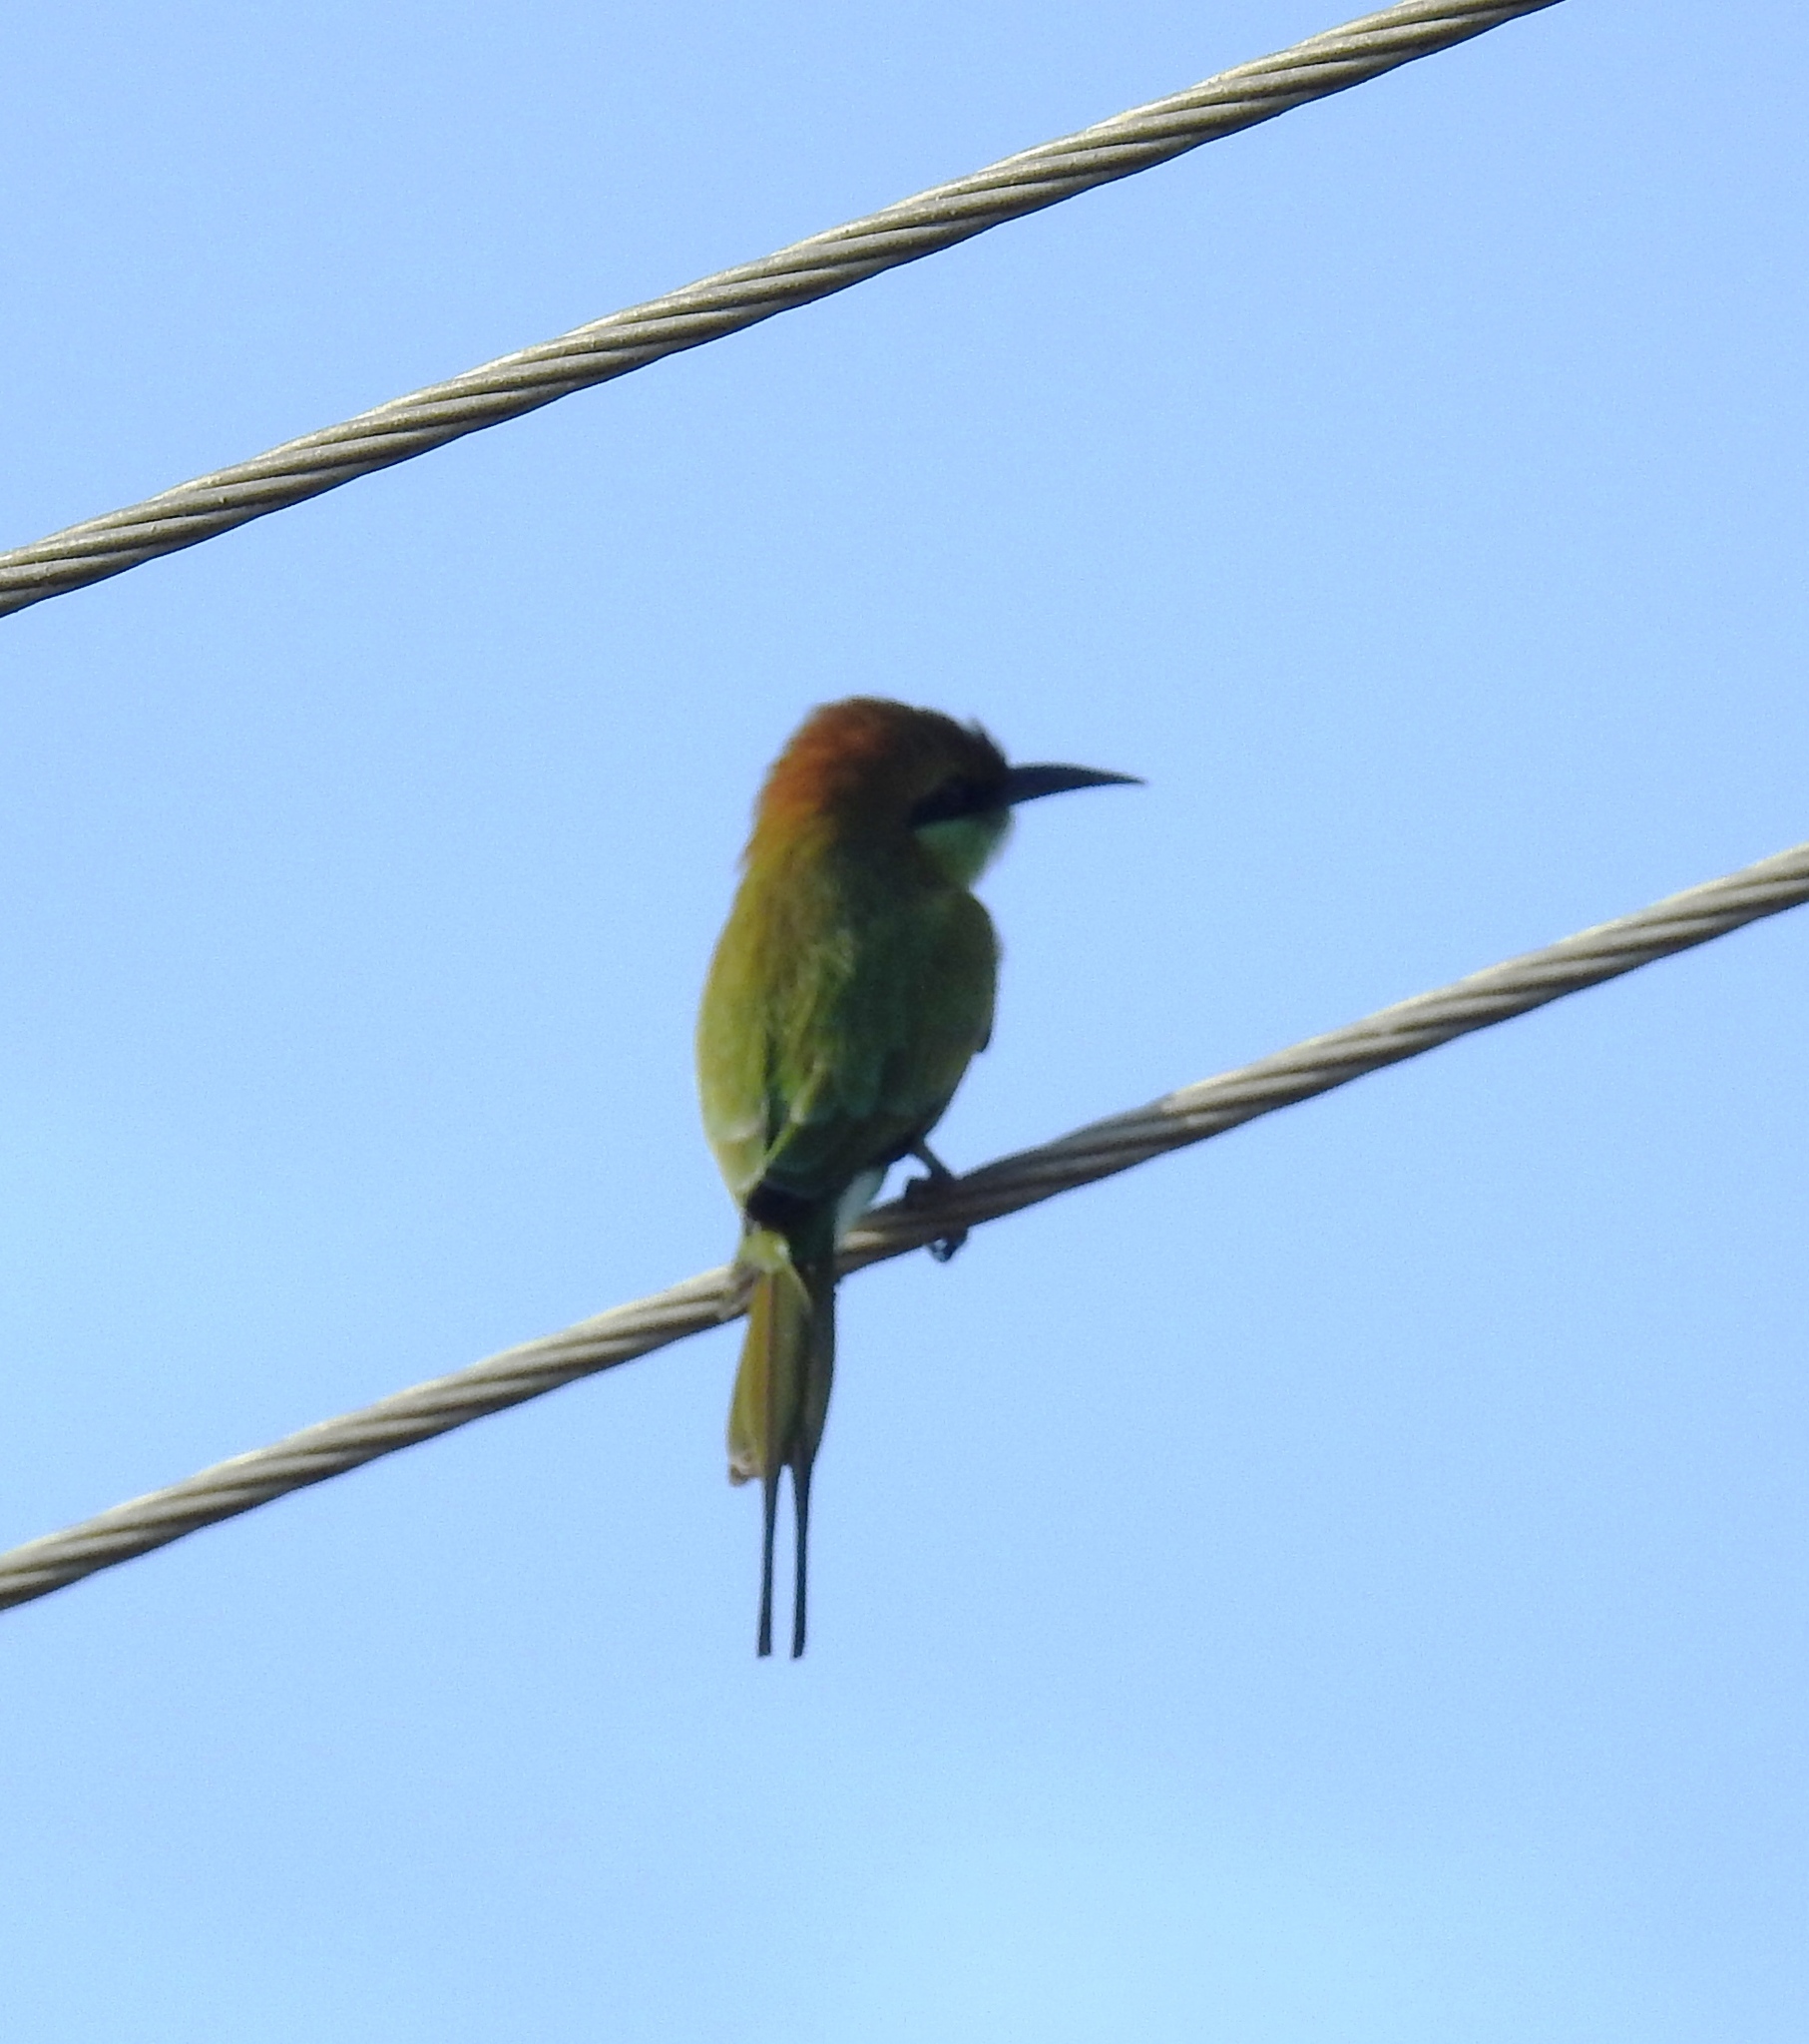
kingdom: Animalia
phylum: Chordata
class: Aves
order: Coraciiformes
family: Meropidae
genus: Merops
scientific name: Merops orientalis
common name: Green bee-eater
